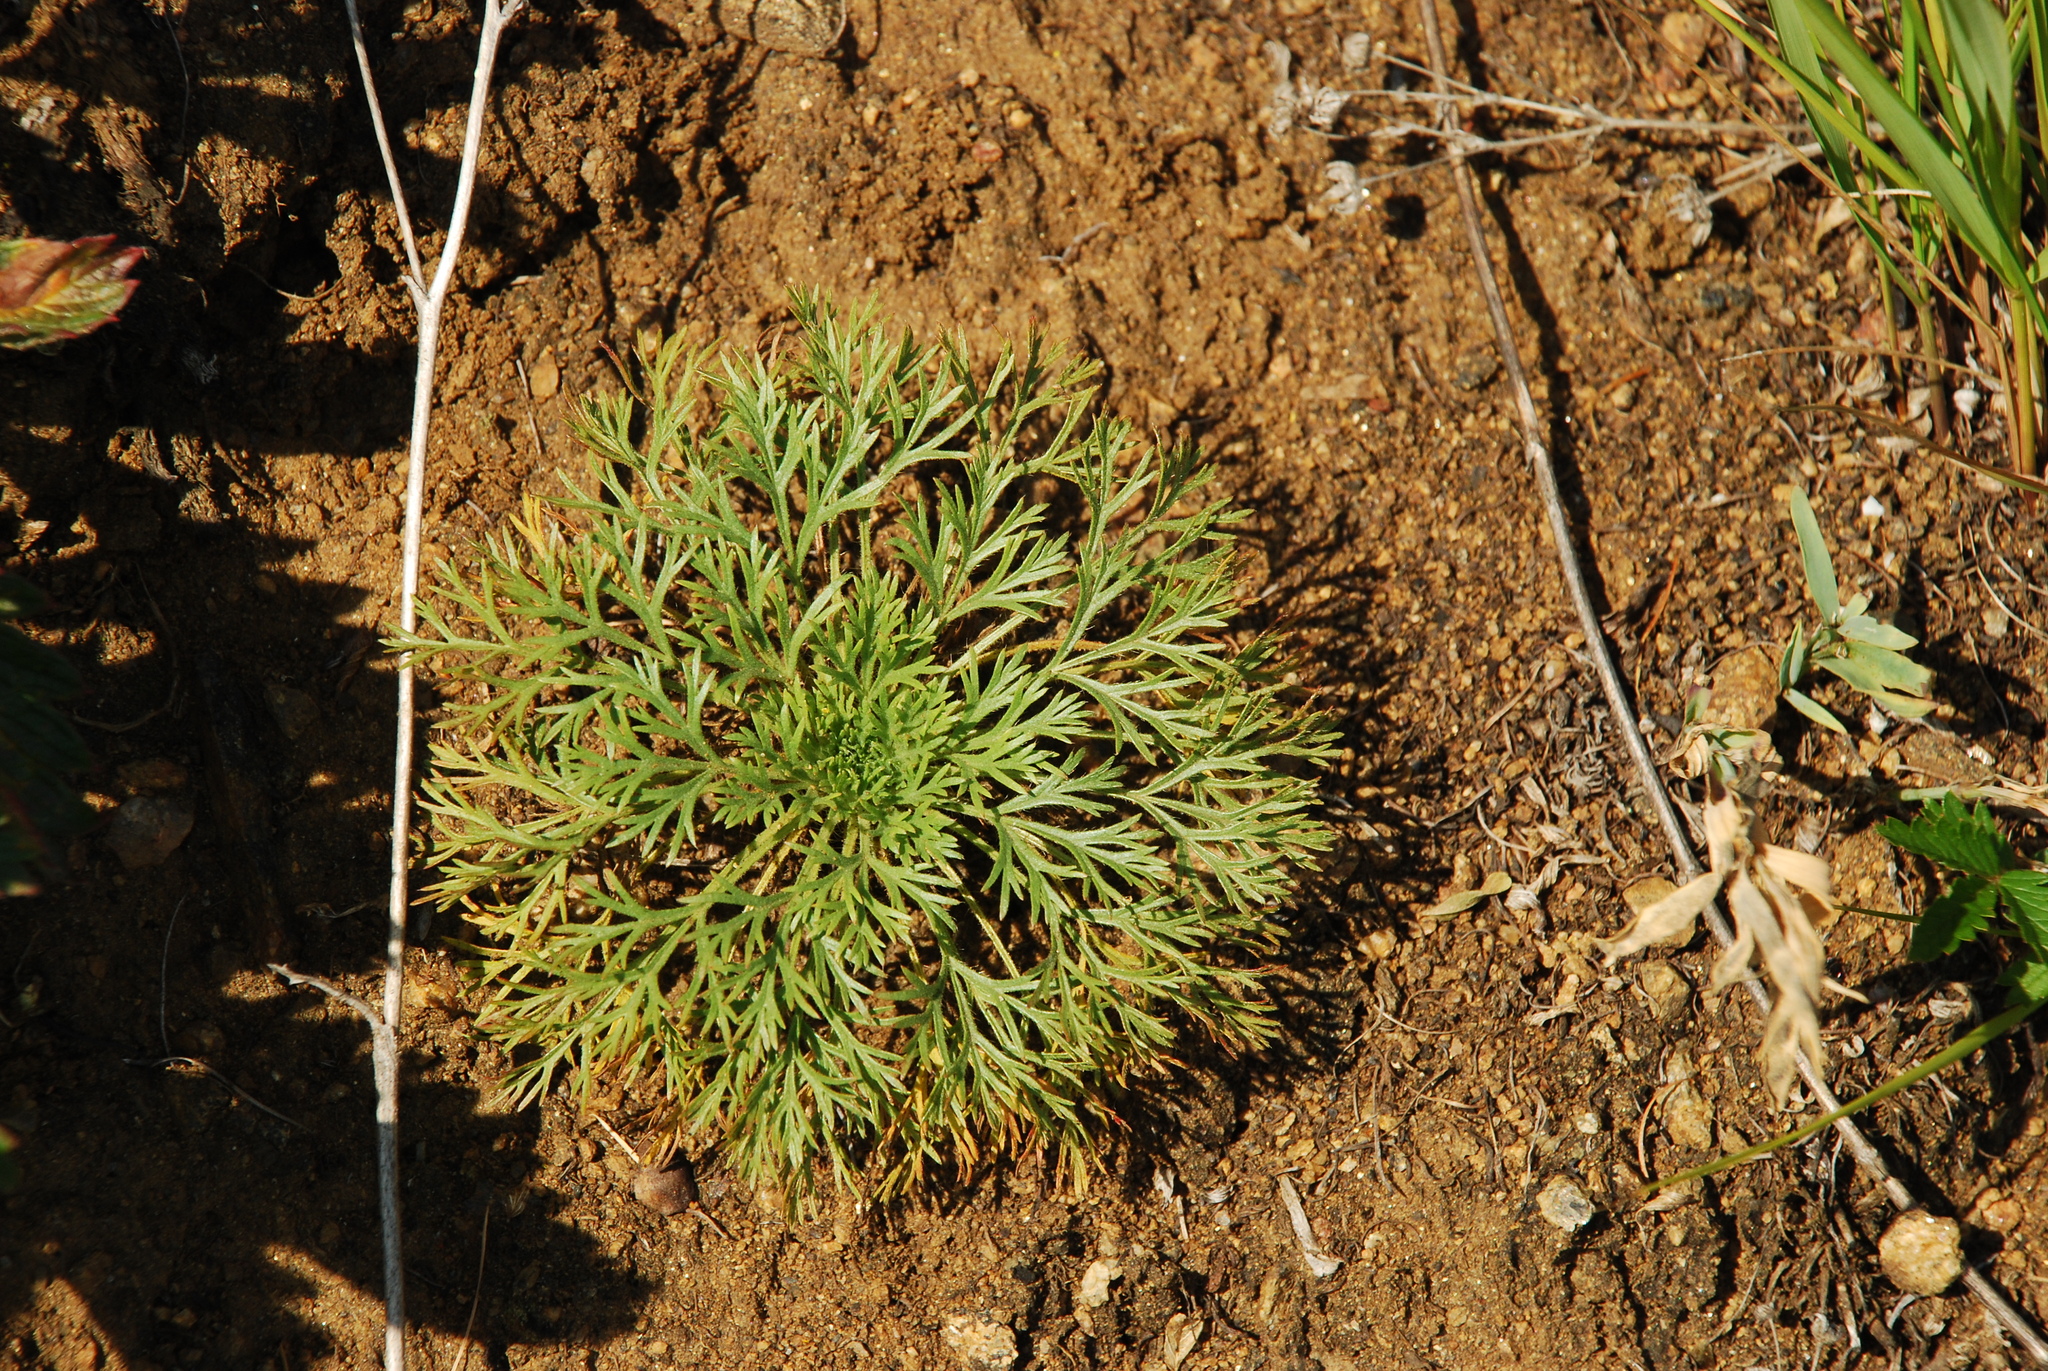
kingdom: Plantae
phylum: Tracheophyta
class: Magnoliopsida
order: Rosales
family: Rosaceae
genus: Chamaerhodos
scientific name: Chamaerhodos erecta
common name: American chamaerhodos
